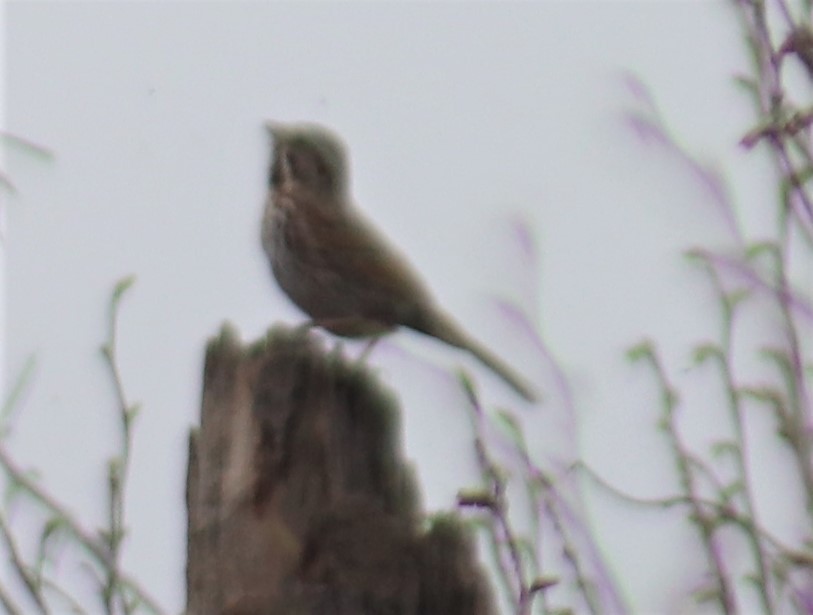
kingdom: Animalia
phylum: Chordata
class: Aves
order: Passeriformes
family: Passerellidae
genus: Melospiza
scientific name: Melospiza melodia
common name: Song sparrow
